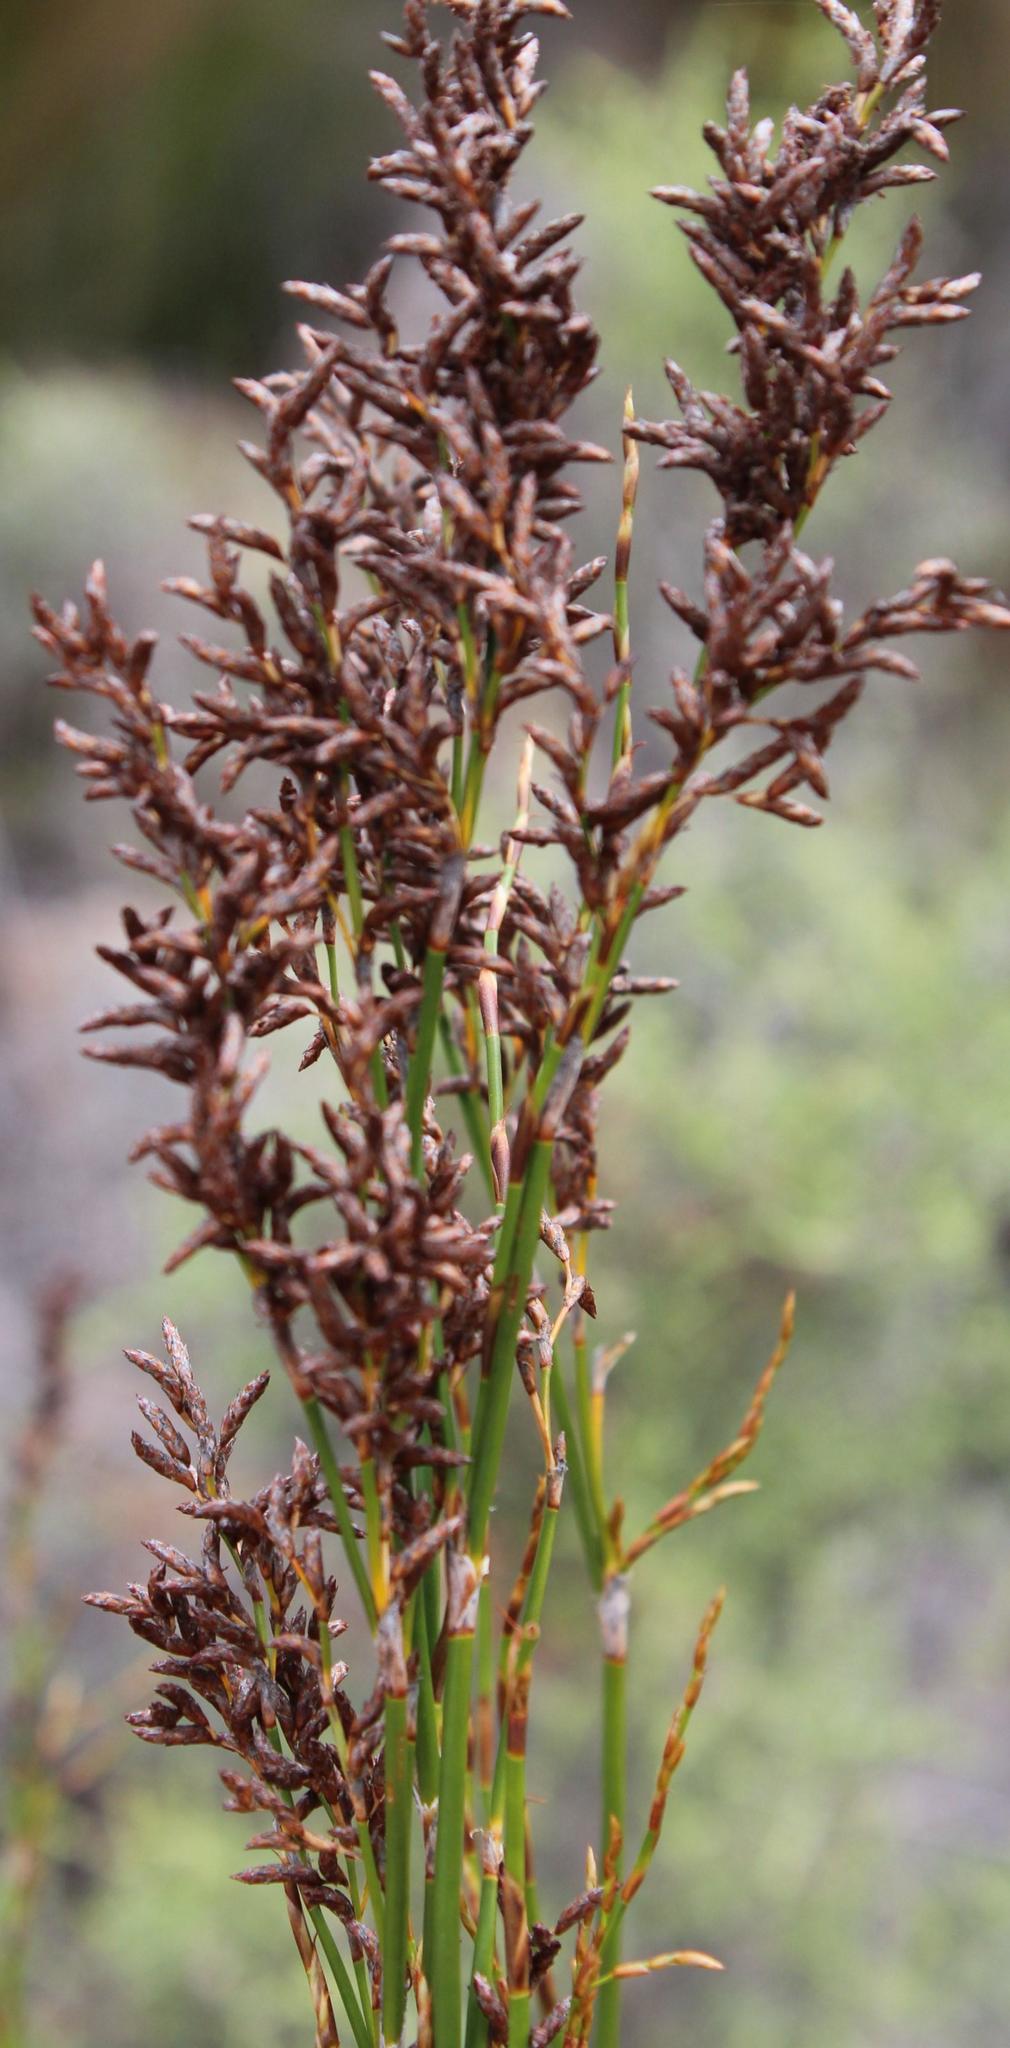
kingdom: Plantae
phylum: Tracheophyta
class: Liliopsida
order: Poales
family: Restionaceae
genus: Restio
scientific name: Restio luxurians
